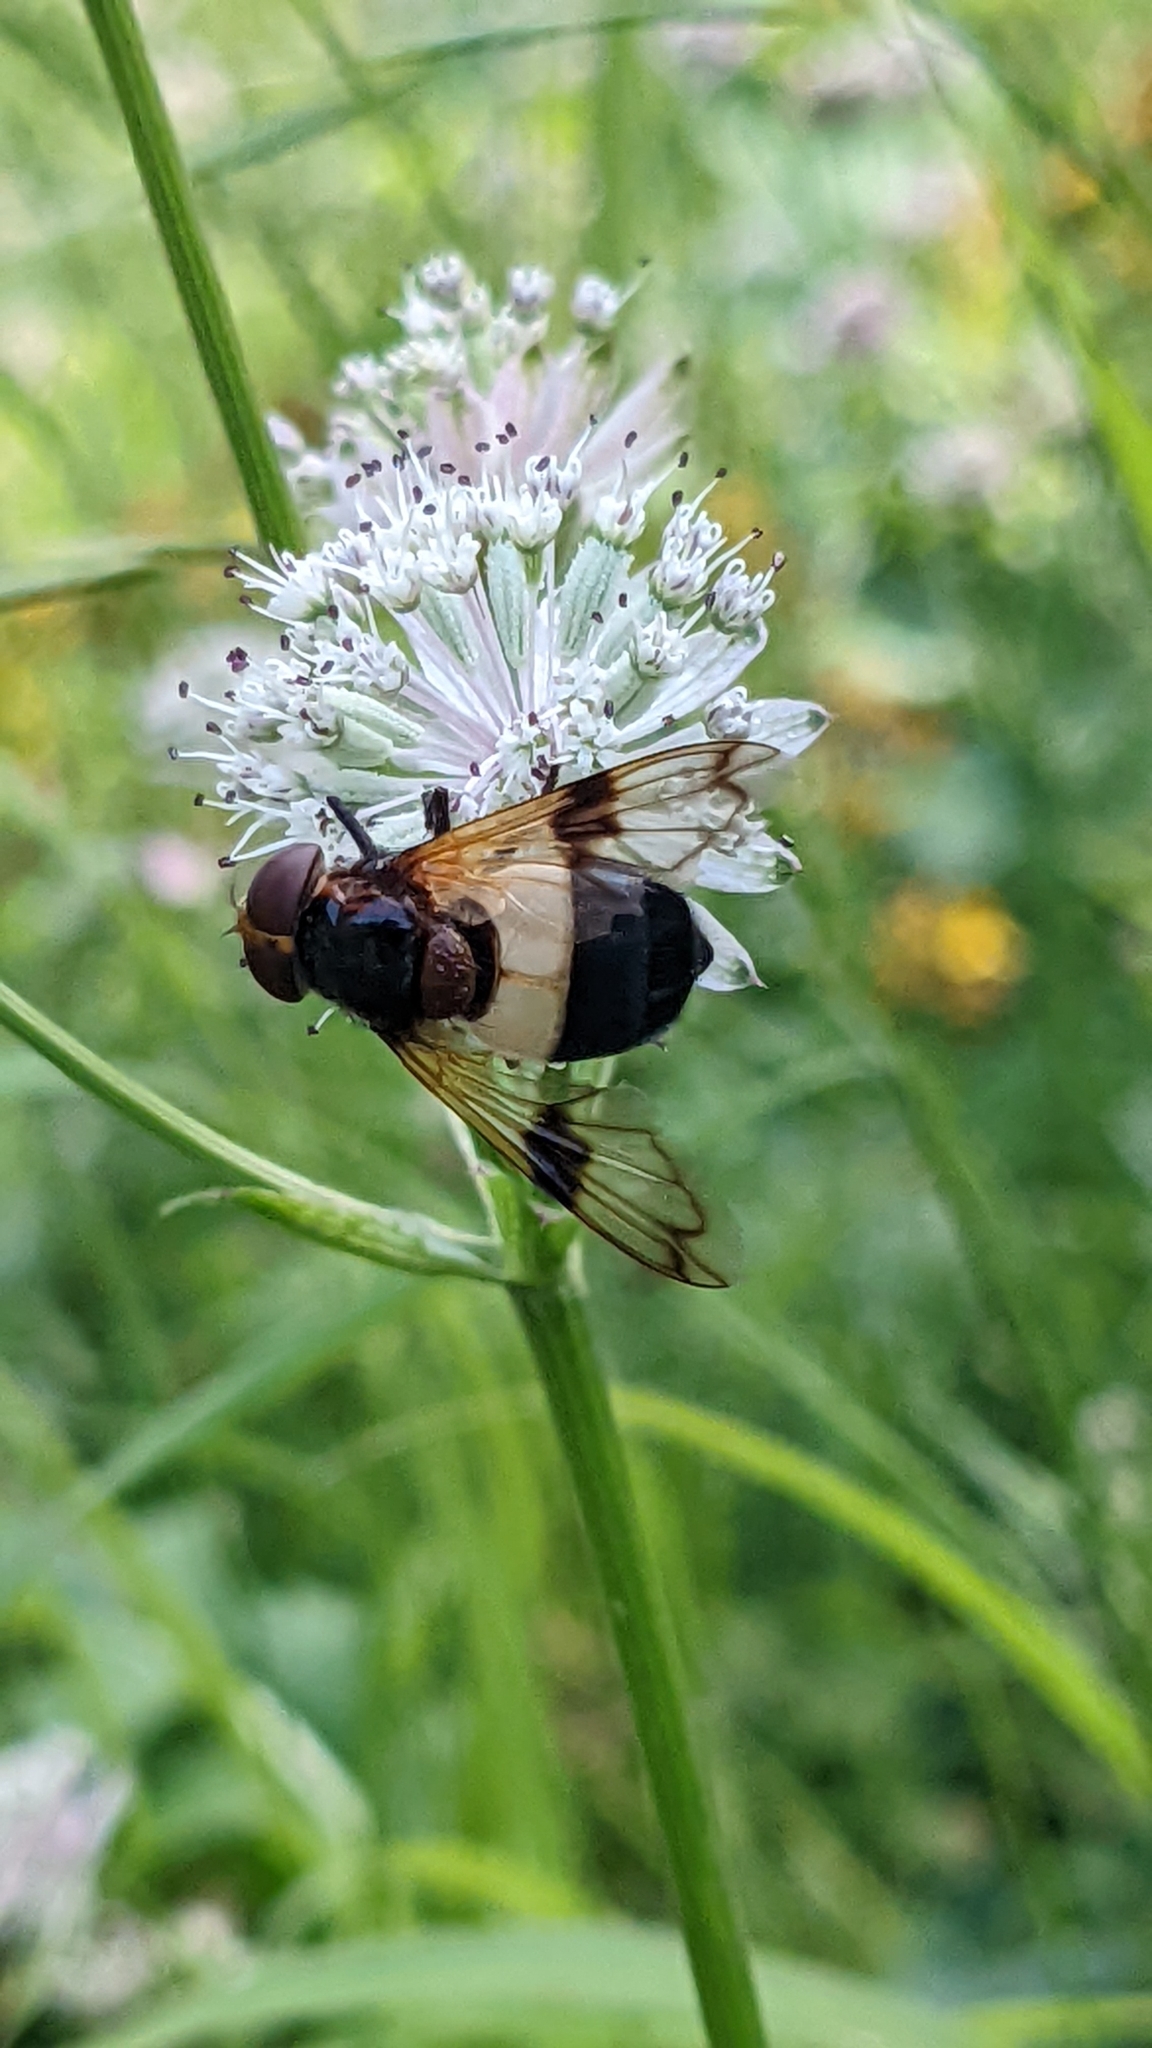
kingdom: Animalia
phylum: Arthropoda
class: Insecta
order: Diptera
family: Syrphidae
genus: Volucella
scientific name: Volucella pellucens
